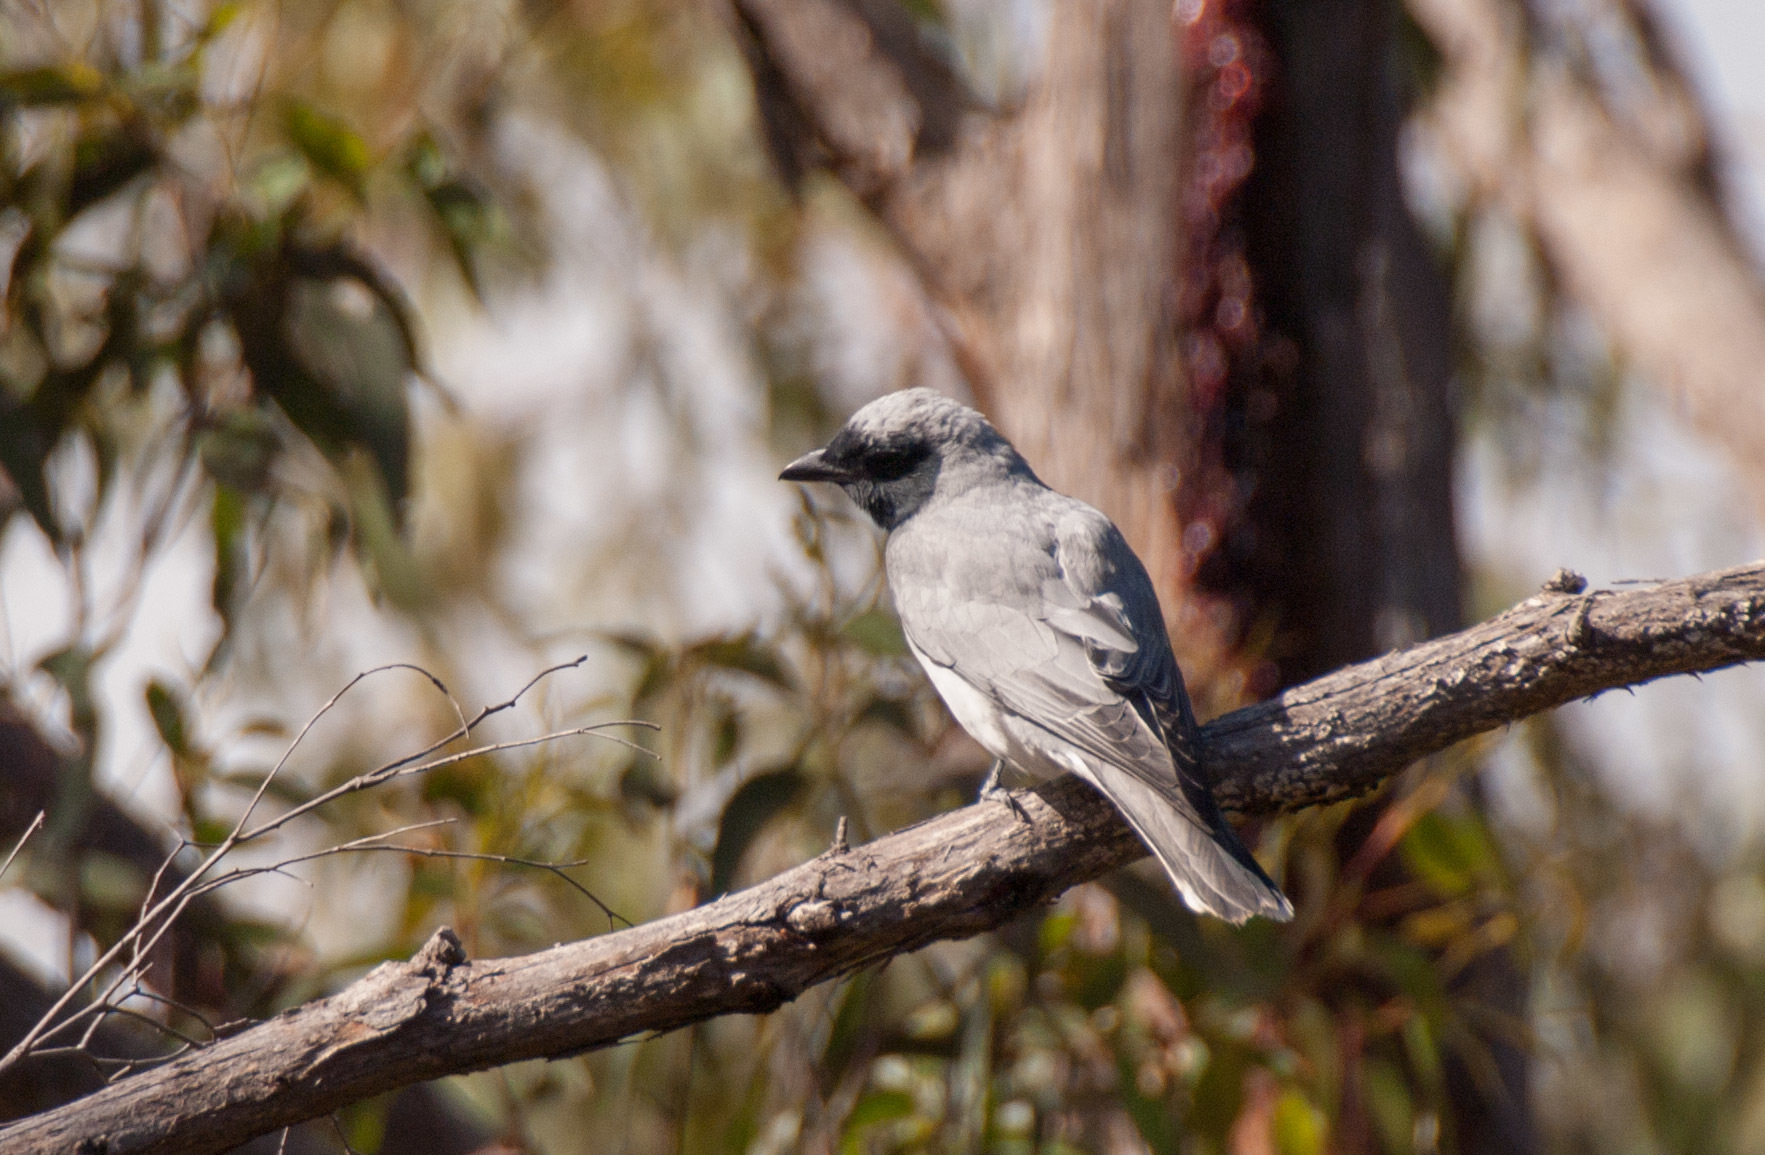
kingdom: Animalia
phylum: Chordata
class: Aves
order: Passeriformes
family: Campephagidae
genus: Coracina
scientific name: Coracina novaehollandiae
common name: Black-faced cuckooshrike
